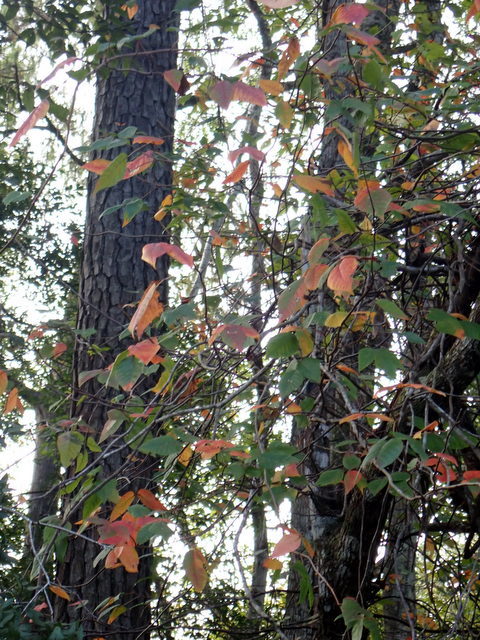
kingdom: Plantae
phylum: Tracheophyta
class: Magnoliopsida
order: Sapindales
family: Anacardiaceae
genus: Toxicodendron
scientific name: Toxicodendron radicans
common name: Poison ivy
